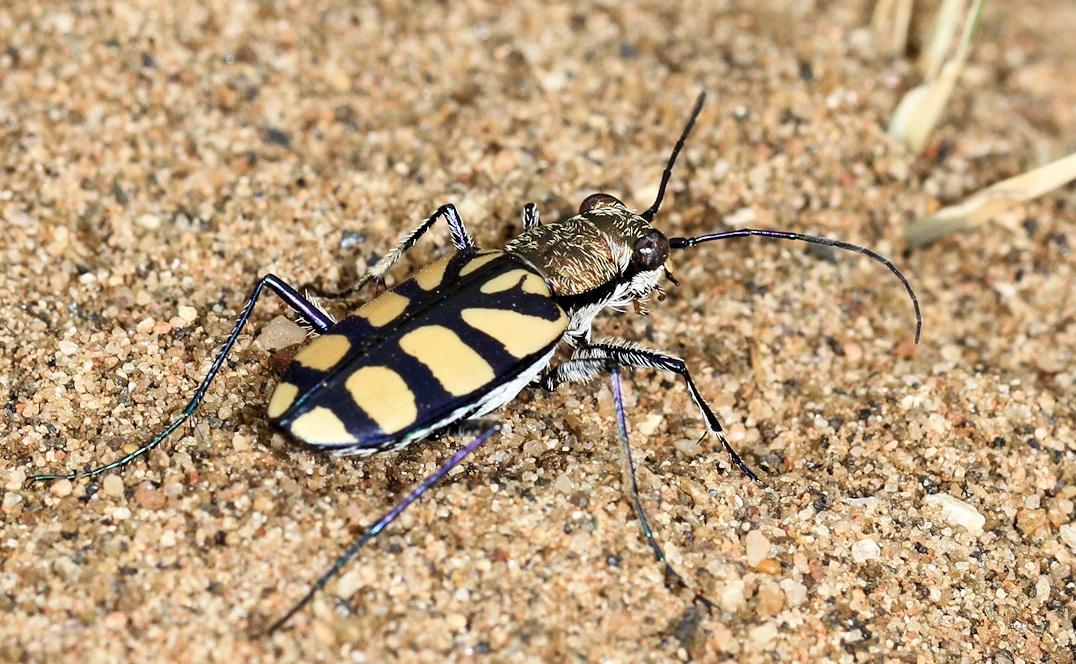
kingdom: Animalia
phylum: Arthropoda
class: Insecta
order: Coleoptera
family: Carabidae
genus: Chaetodera
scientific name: Chaetodera regalis
